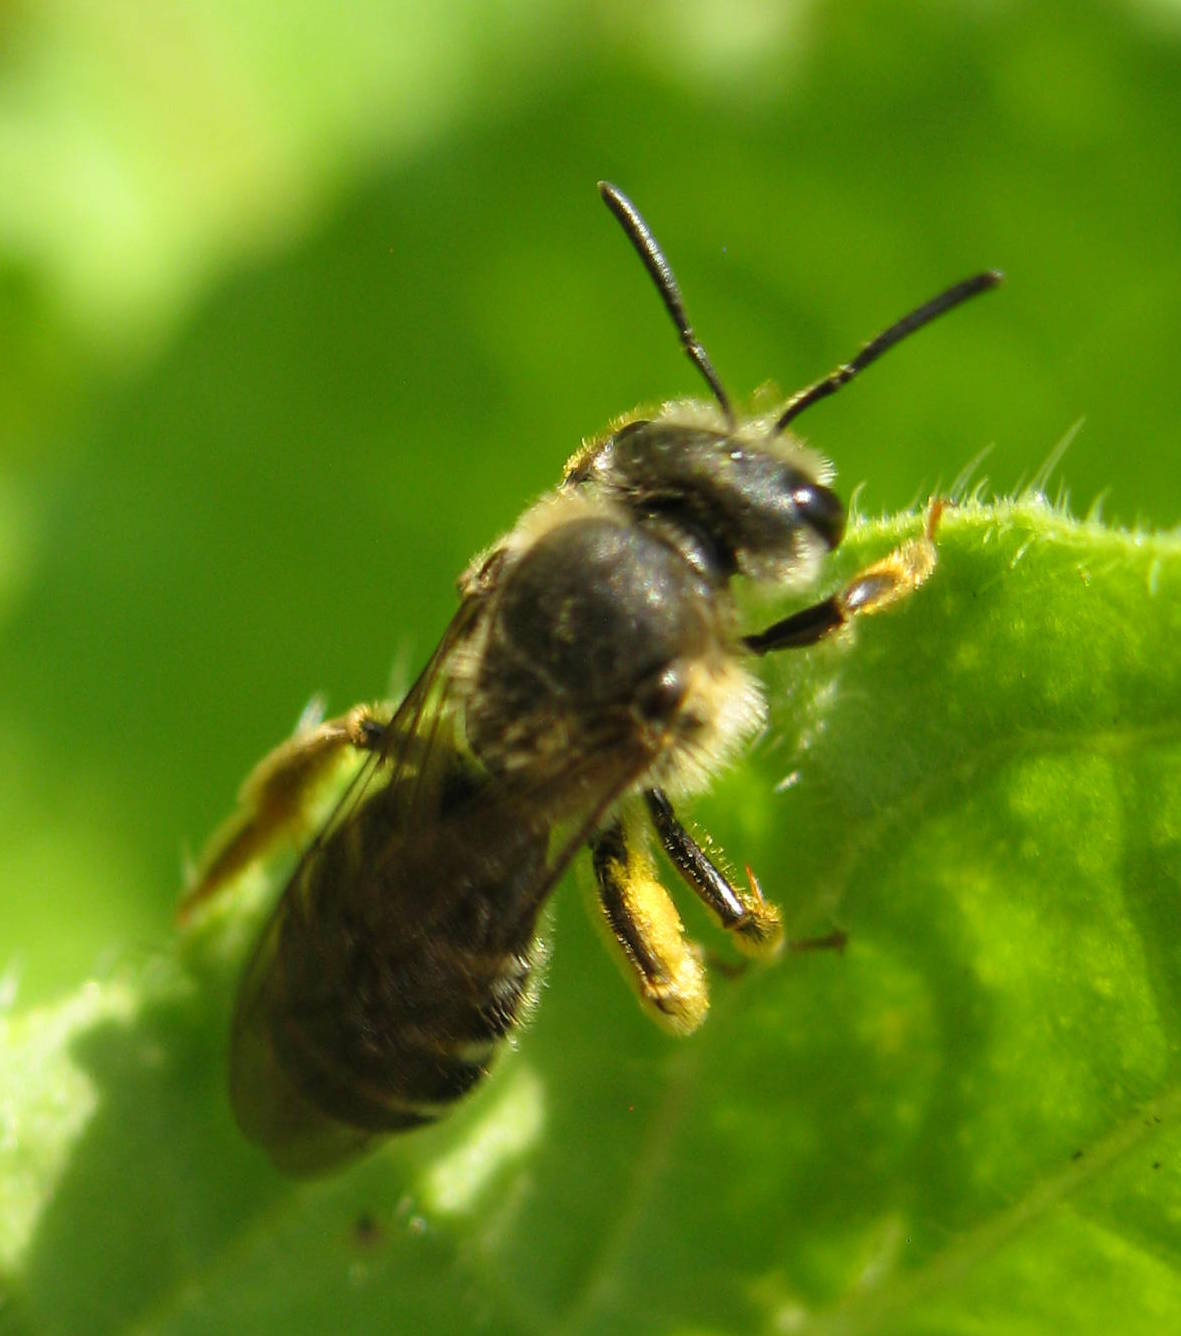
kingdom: Animalia
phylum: Arthropoda
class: Insecta
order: Hymenoptera
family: Halictidae
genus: Halictus
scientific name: Halictus rubicundus
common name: Orange-legged furrow bee
